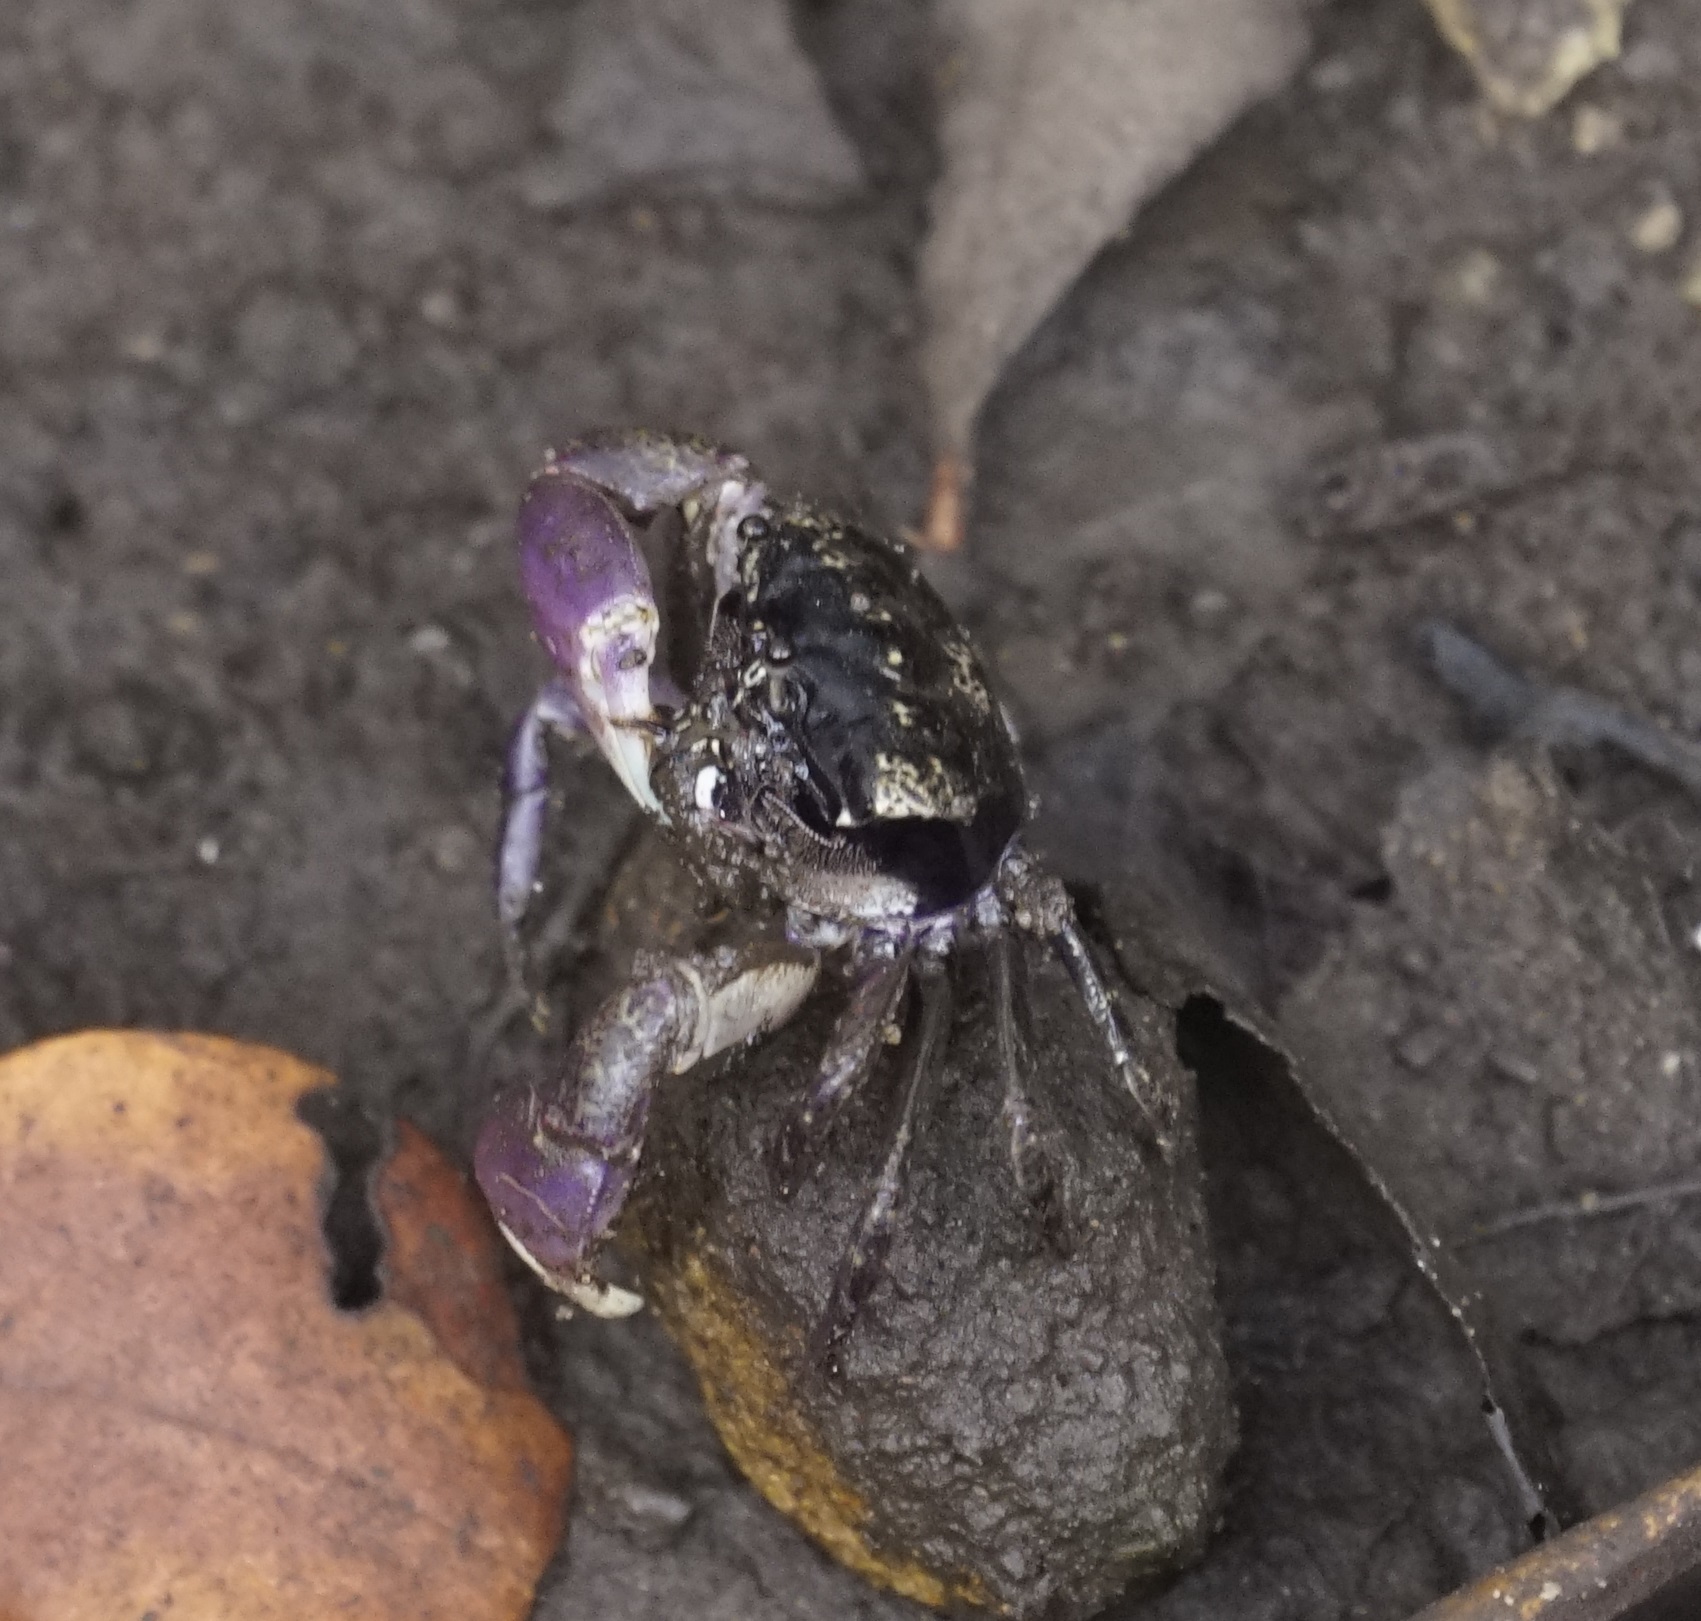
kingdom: Animalia
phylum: Arthropoda
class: Malacostraca
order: Decapoda
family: Heloeciidae
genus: Heloecius
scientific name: Heloecius cordiformis
